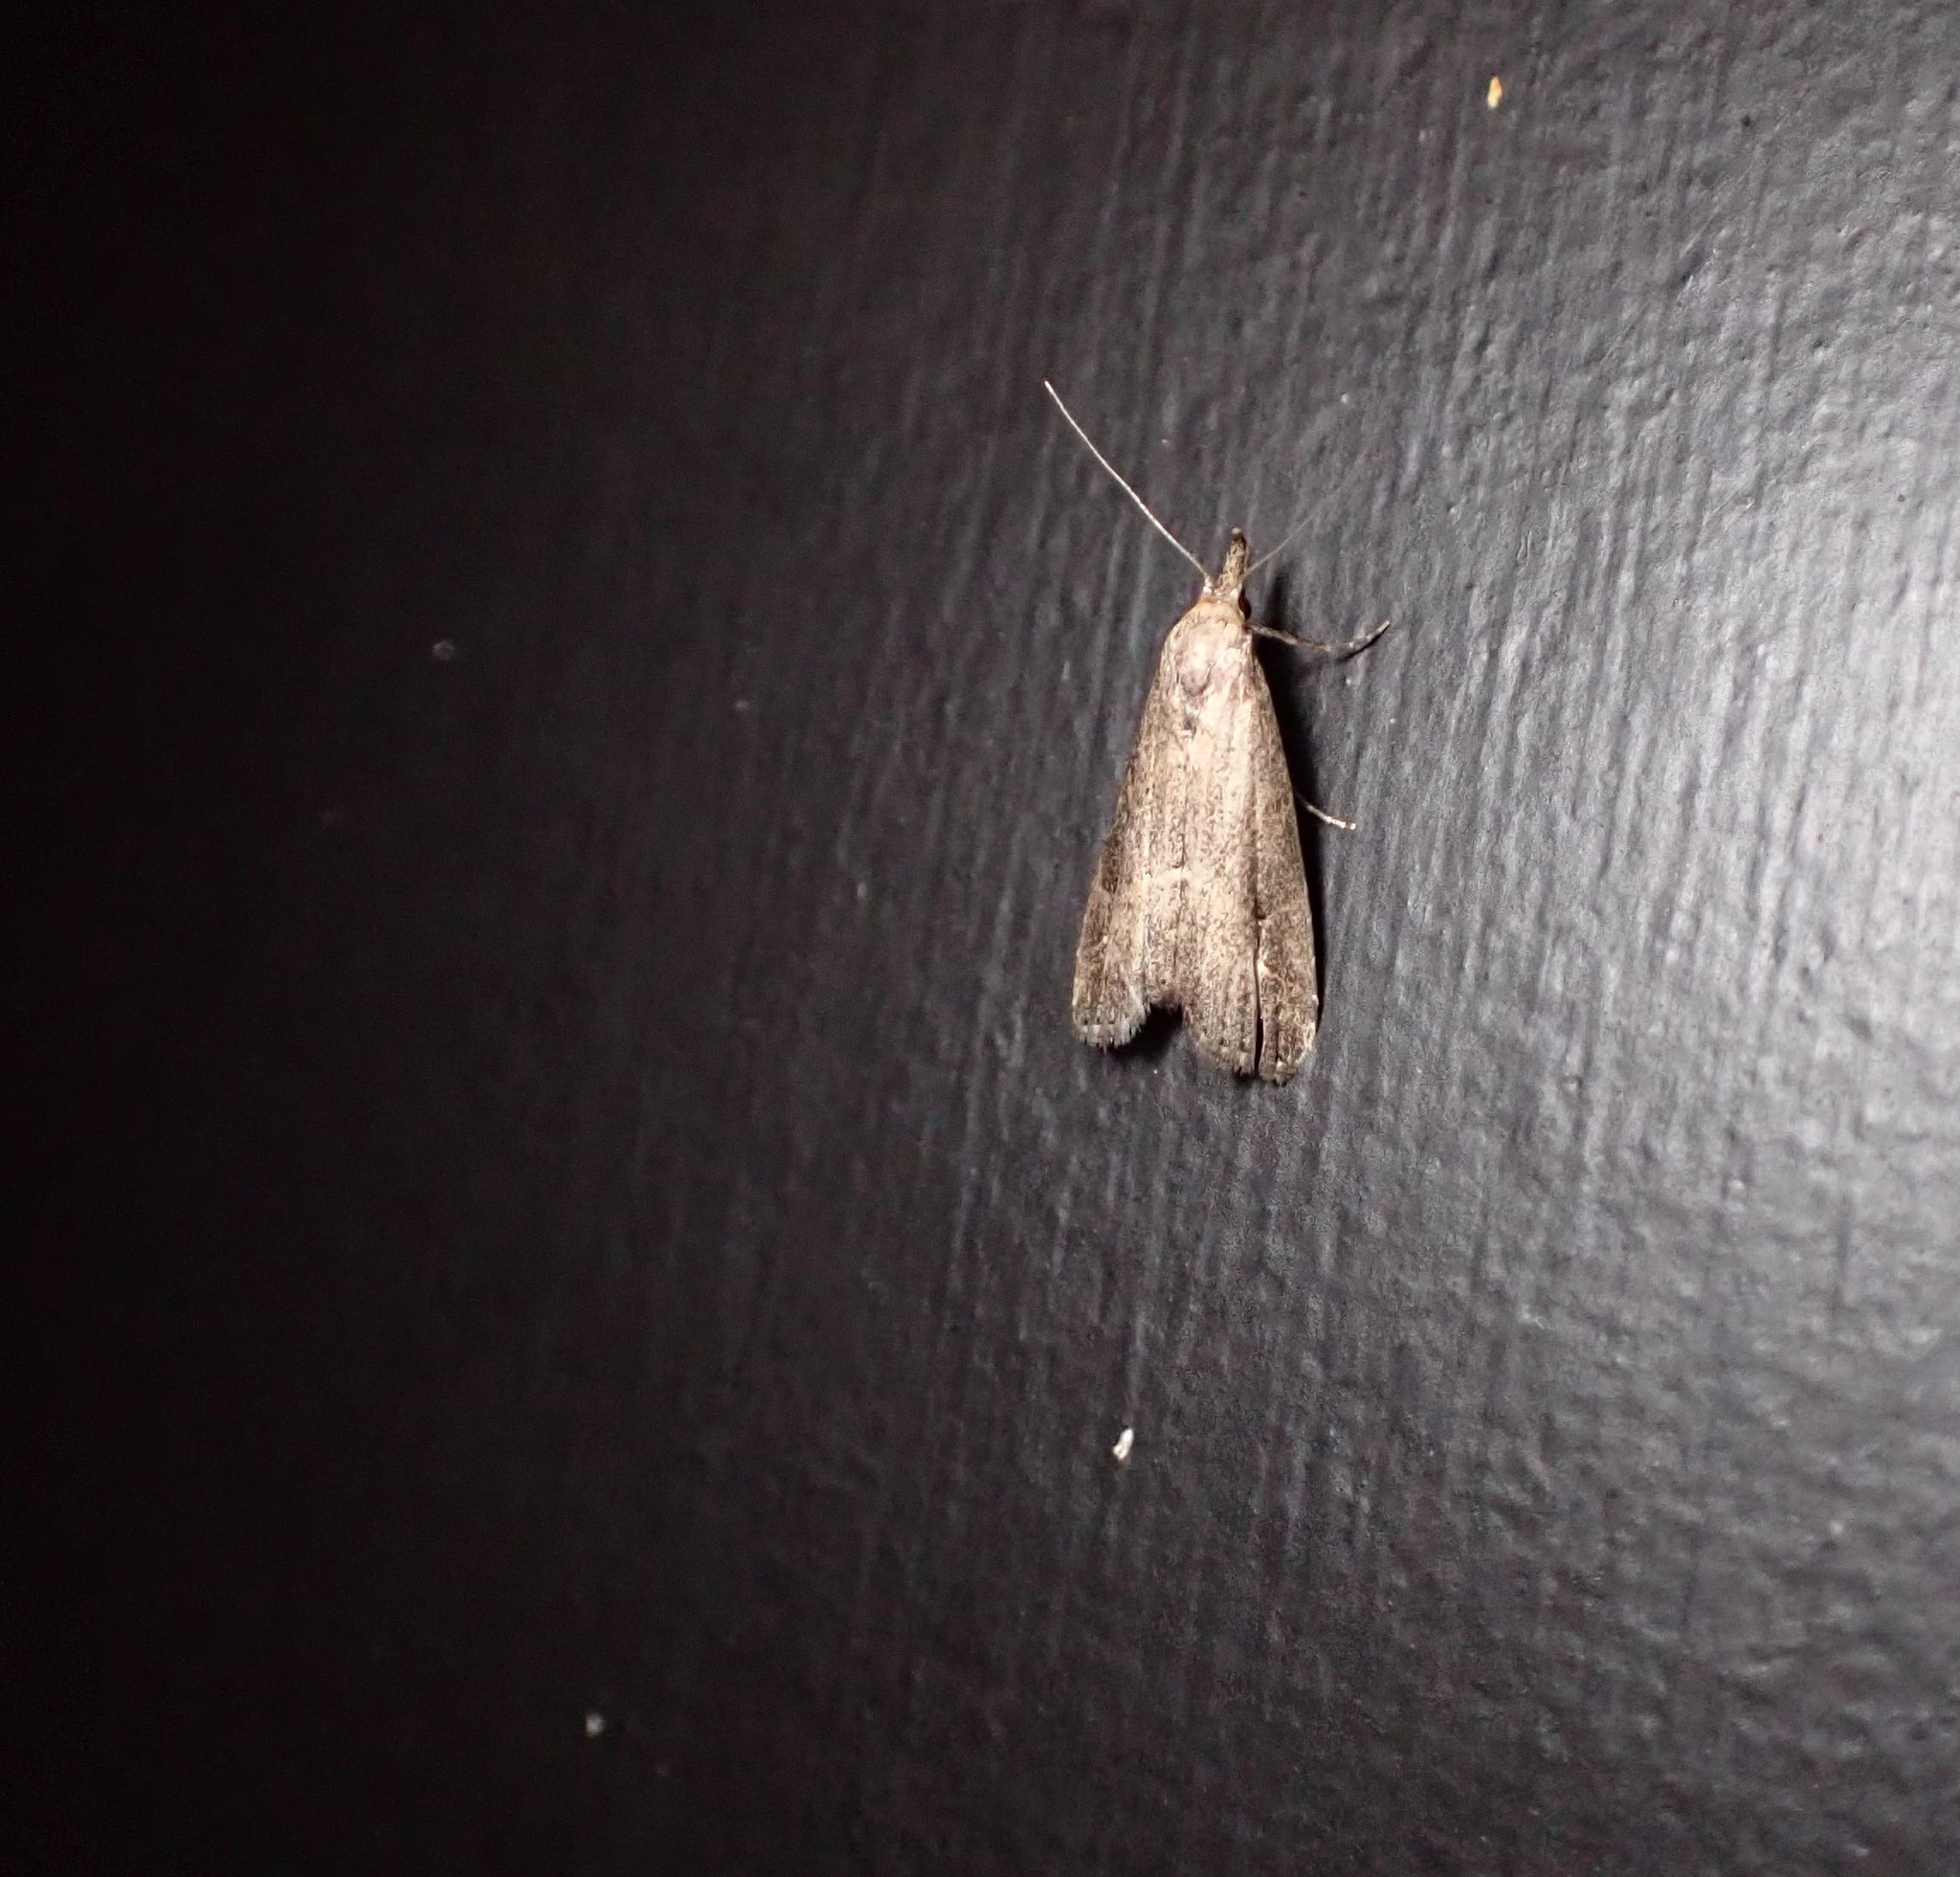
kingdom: Animalia
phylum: Arthropoda
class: Insecta
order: Lepidoptera
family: Erebidae
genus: Schrankia
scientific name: Schrankia costaestrigalis
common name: Pinion-streaked snout
